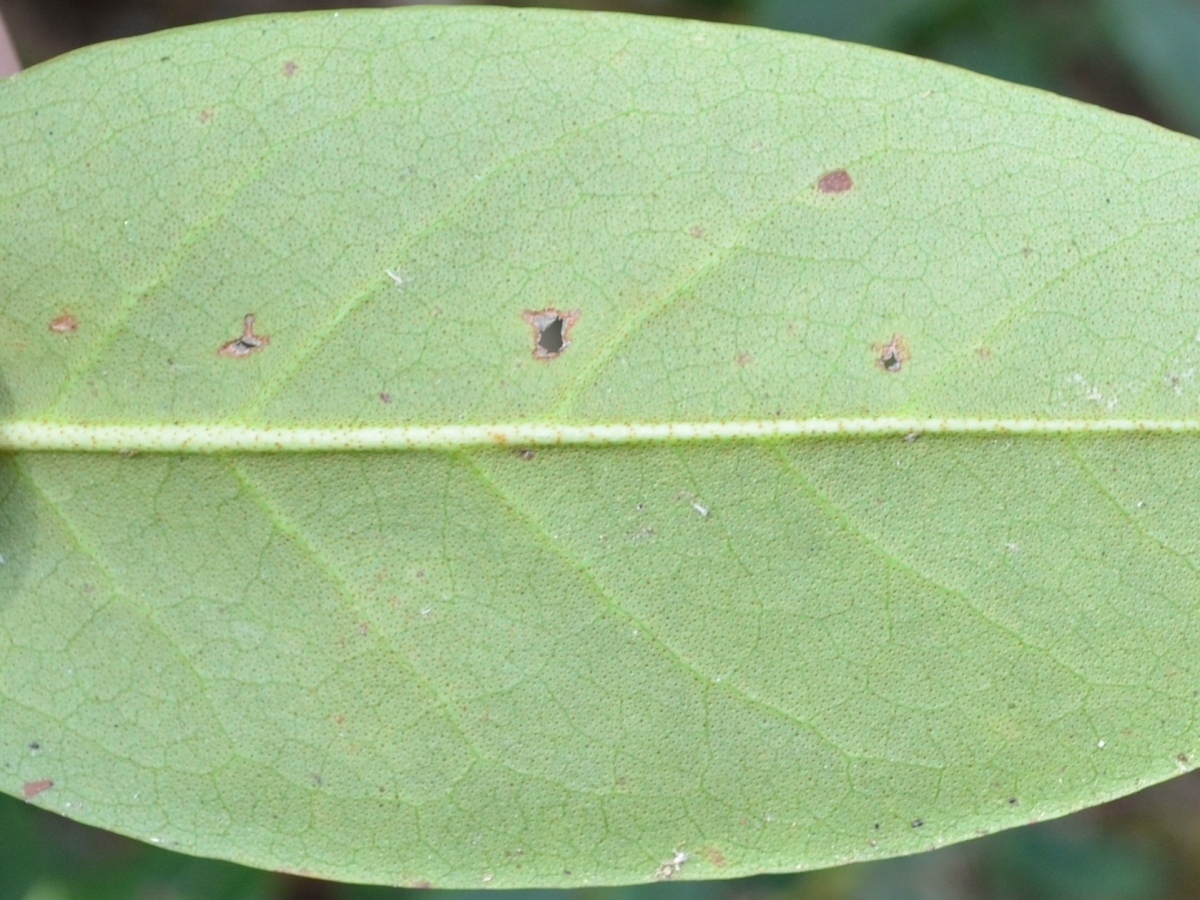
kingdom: Plantae
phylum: Tracheophyta
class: Magnoliopsida
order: Ericales
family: Ericaceae
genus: Rhododendron
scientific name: Rhododendron minus
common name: Piedmont rhododendron
